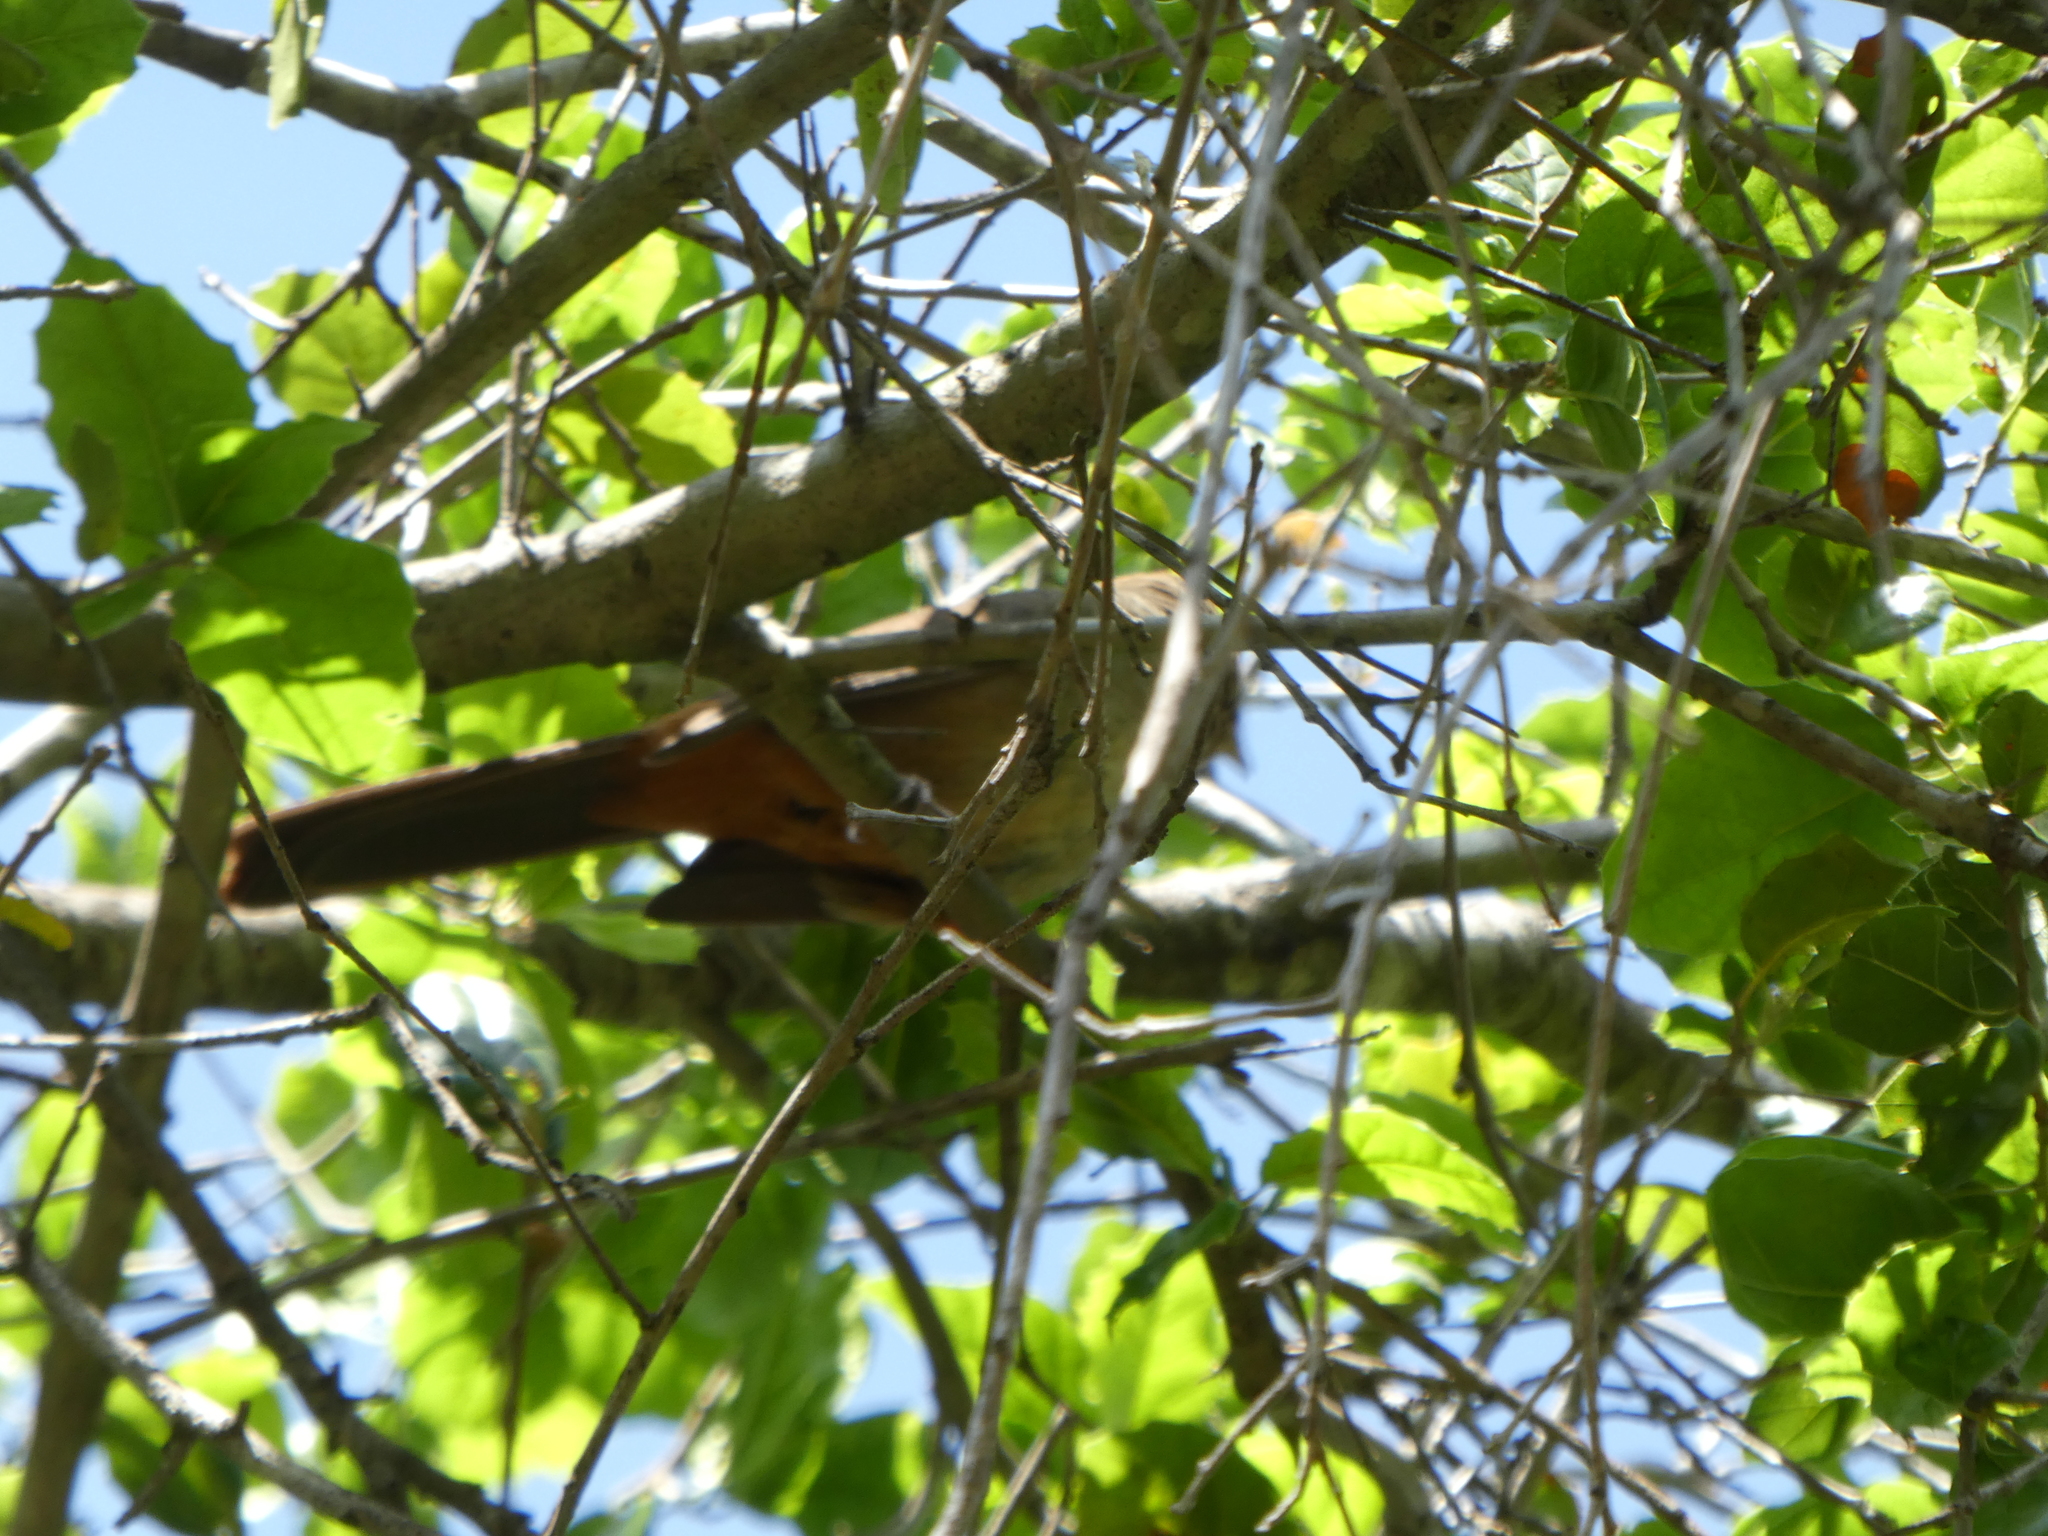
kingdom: Animalia
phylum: Chordata
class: Aves
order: Passeriformes
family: Passerellidae
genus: Melozone
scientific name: Melozone crissalis
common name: California towhee
